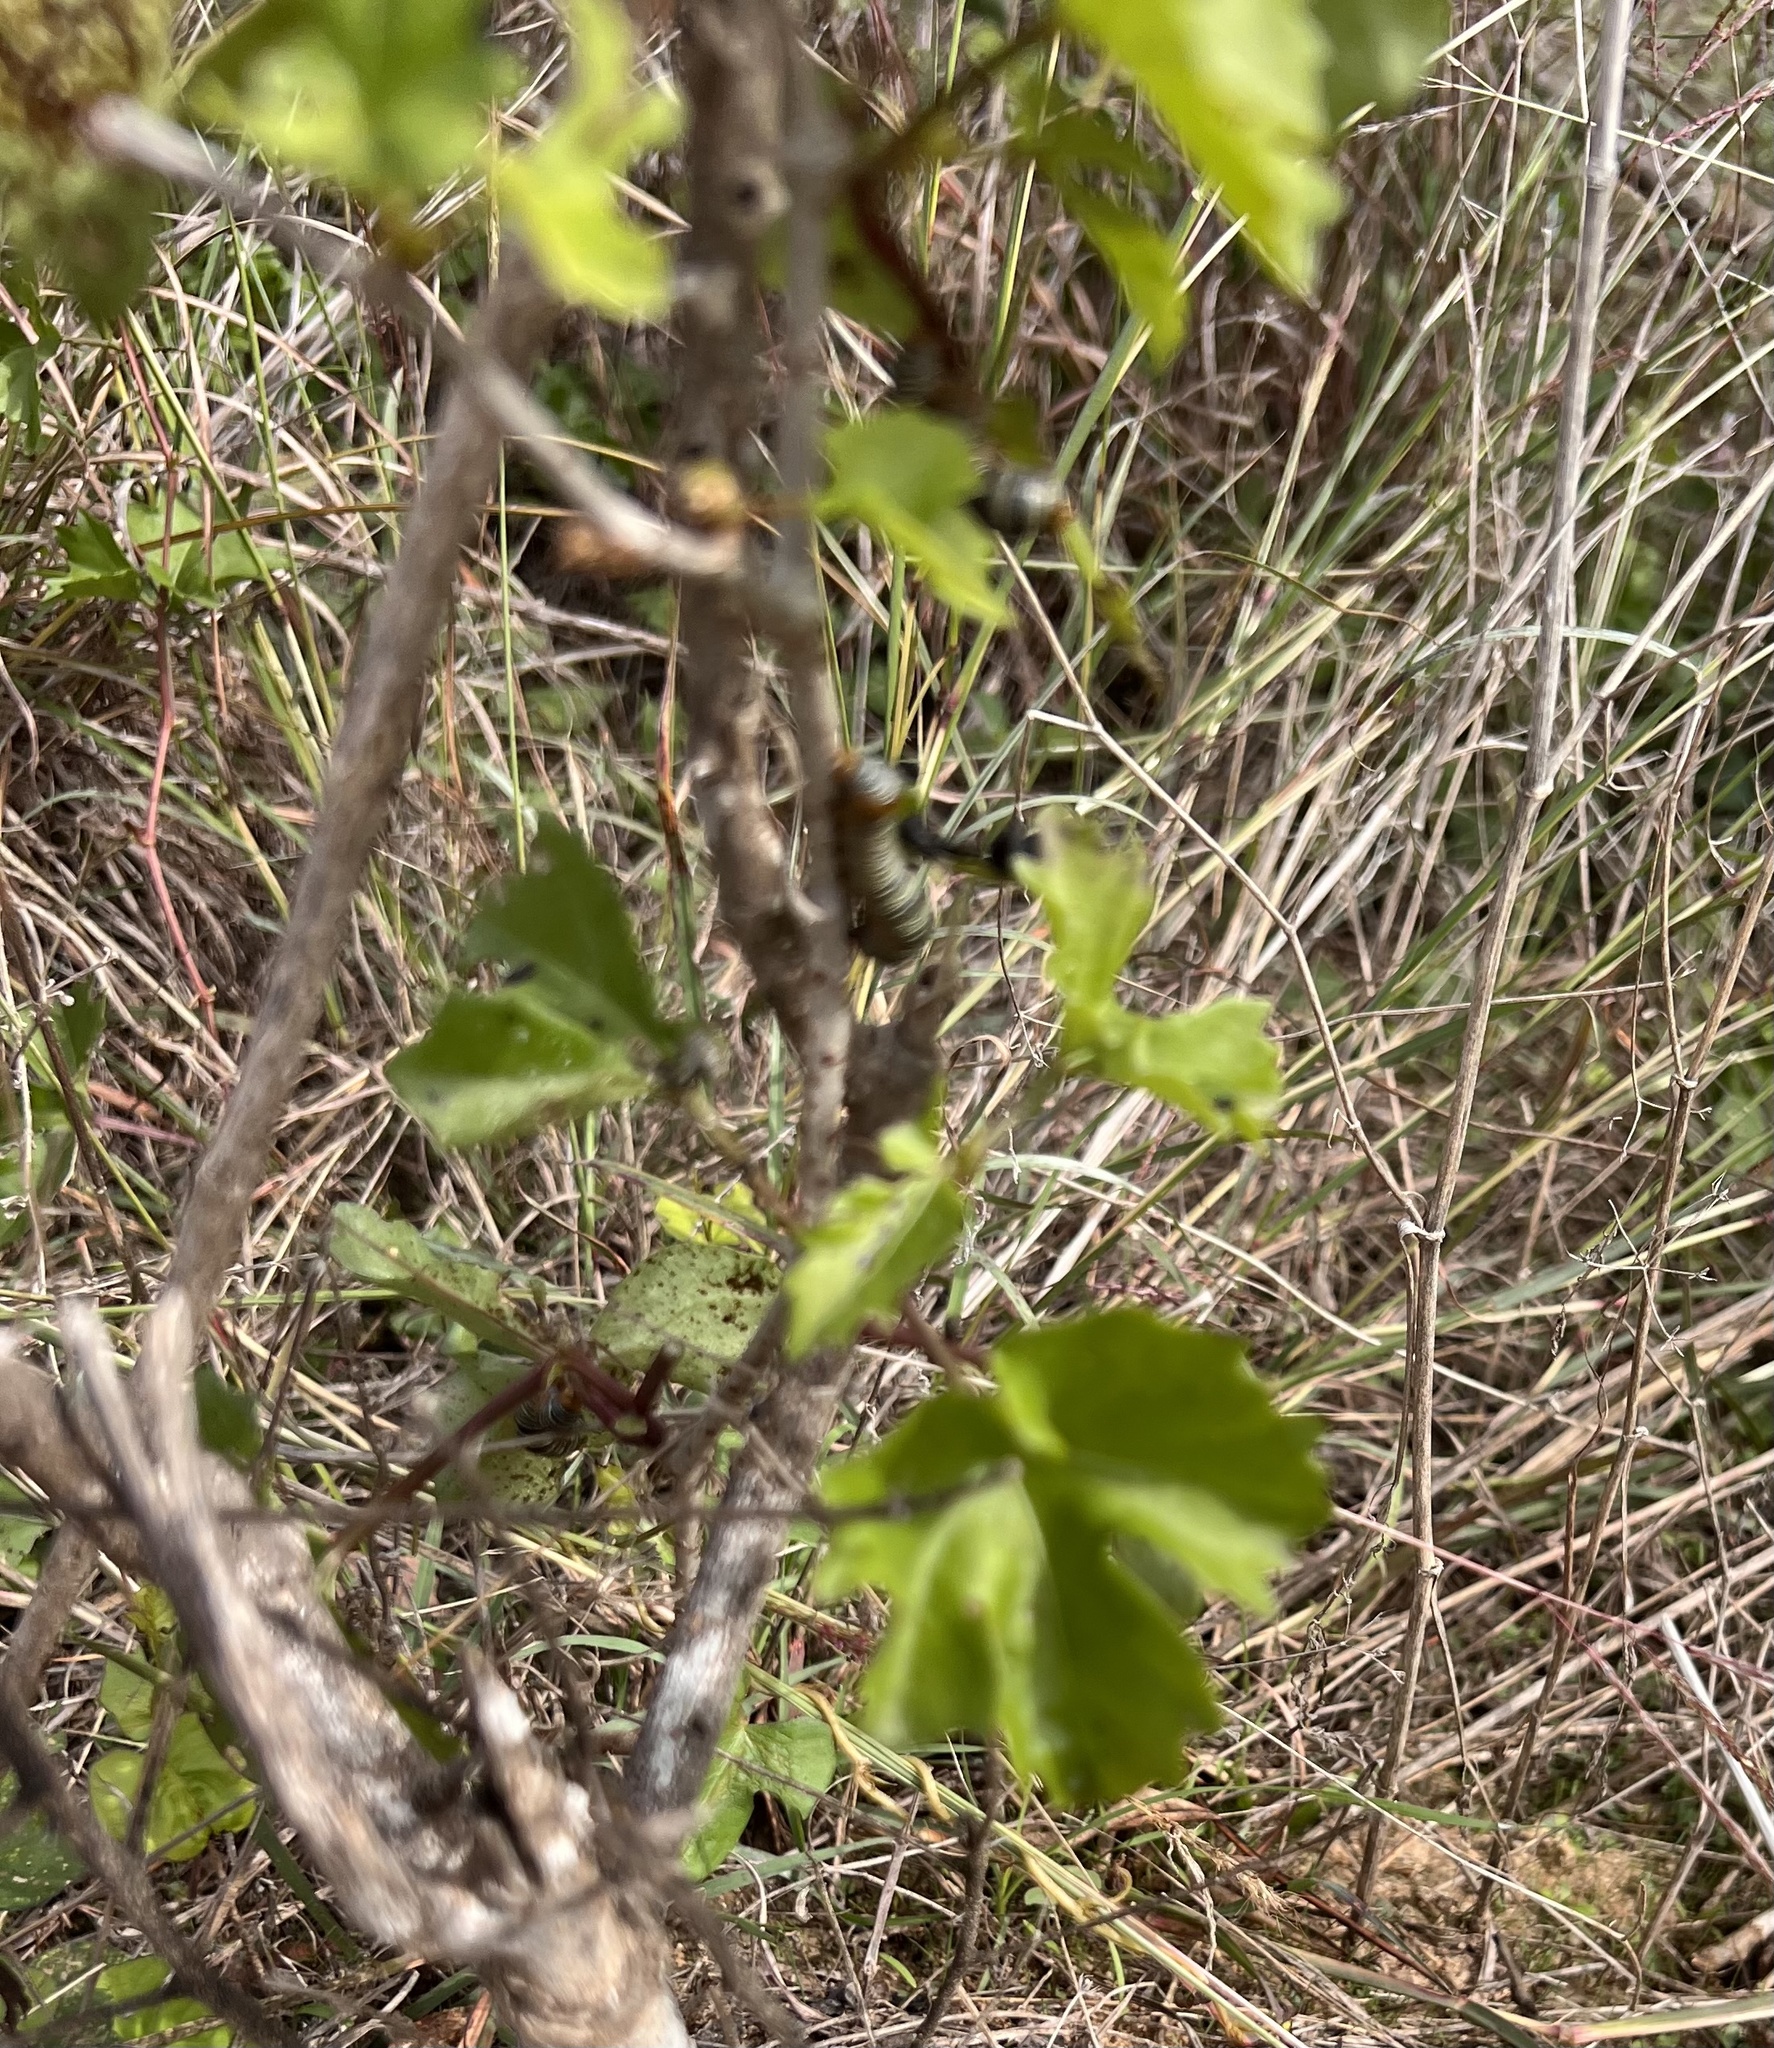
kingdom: Plantae
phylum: Tracheophyta
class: Magnoliopsida
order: Vitales
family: Vitaceae
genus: Cissus
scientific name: Cissus trifoliata
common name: Vine-sorrel
